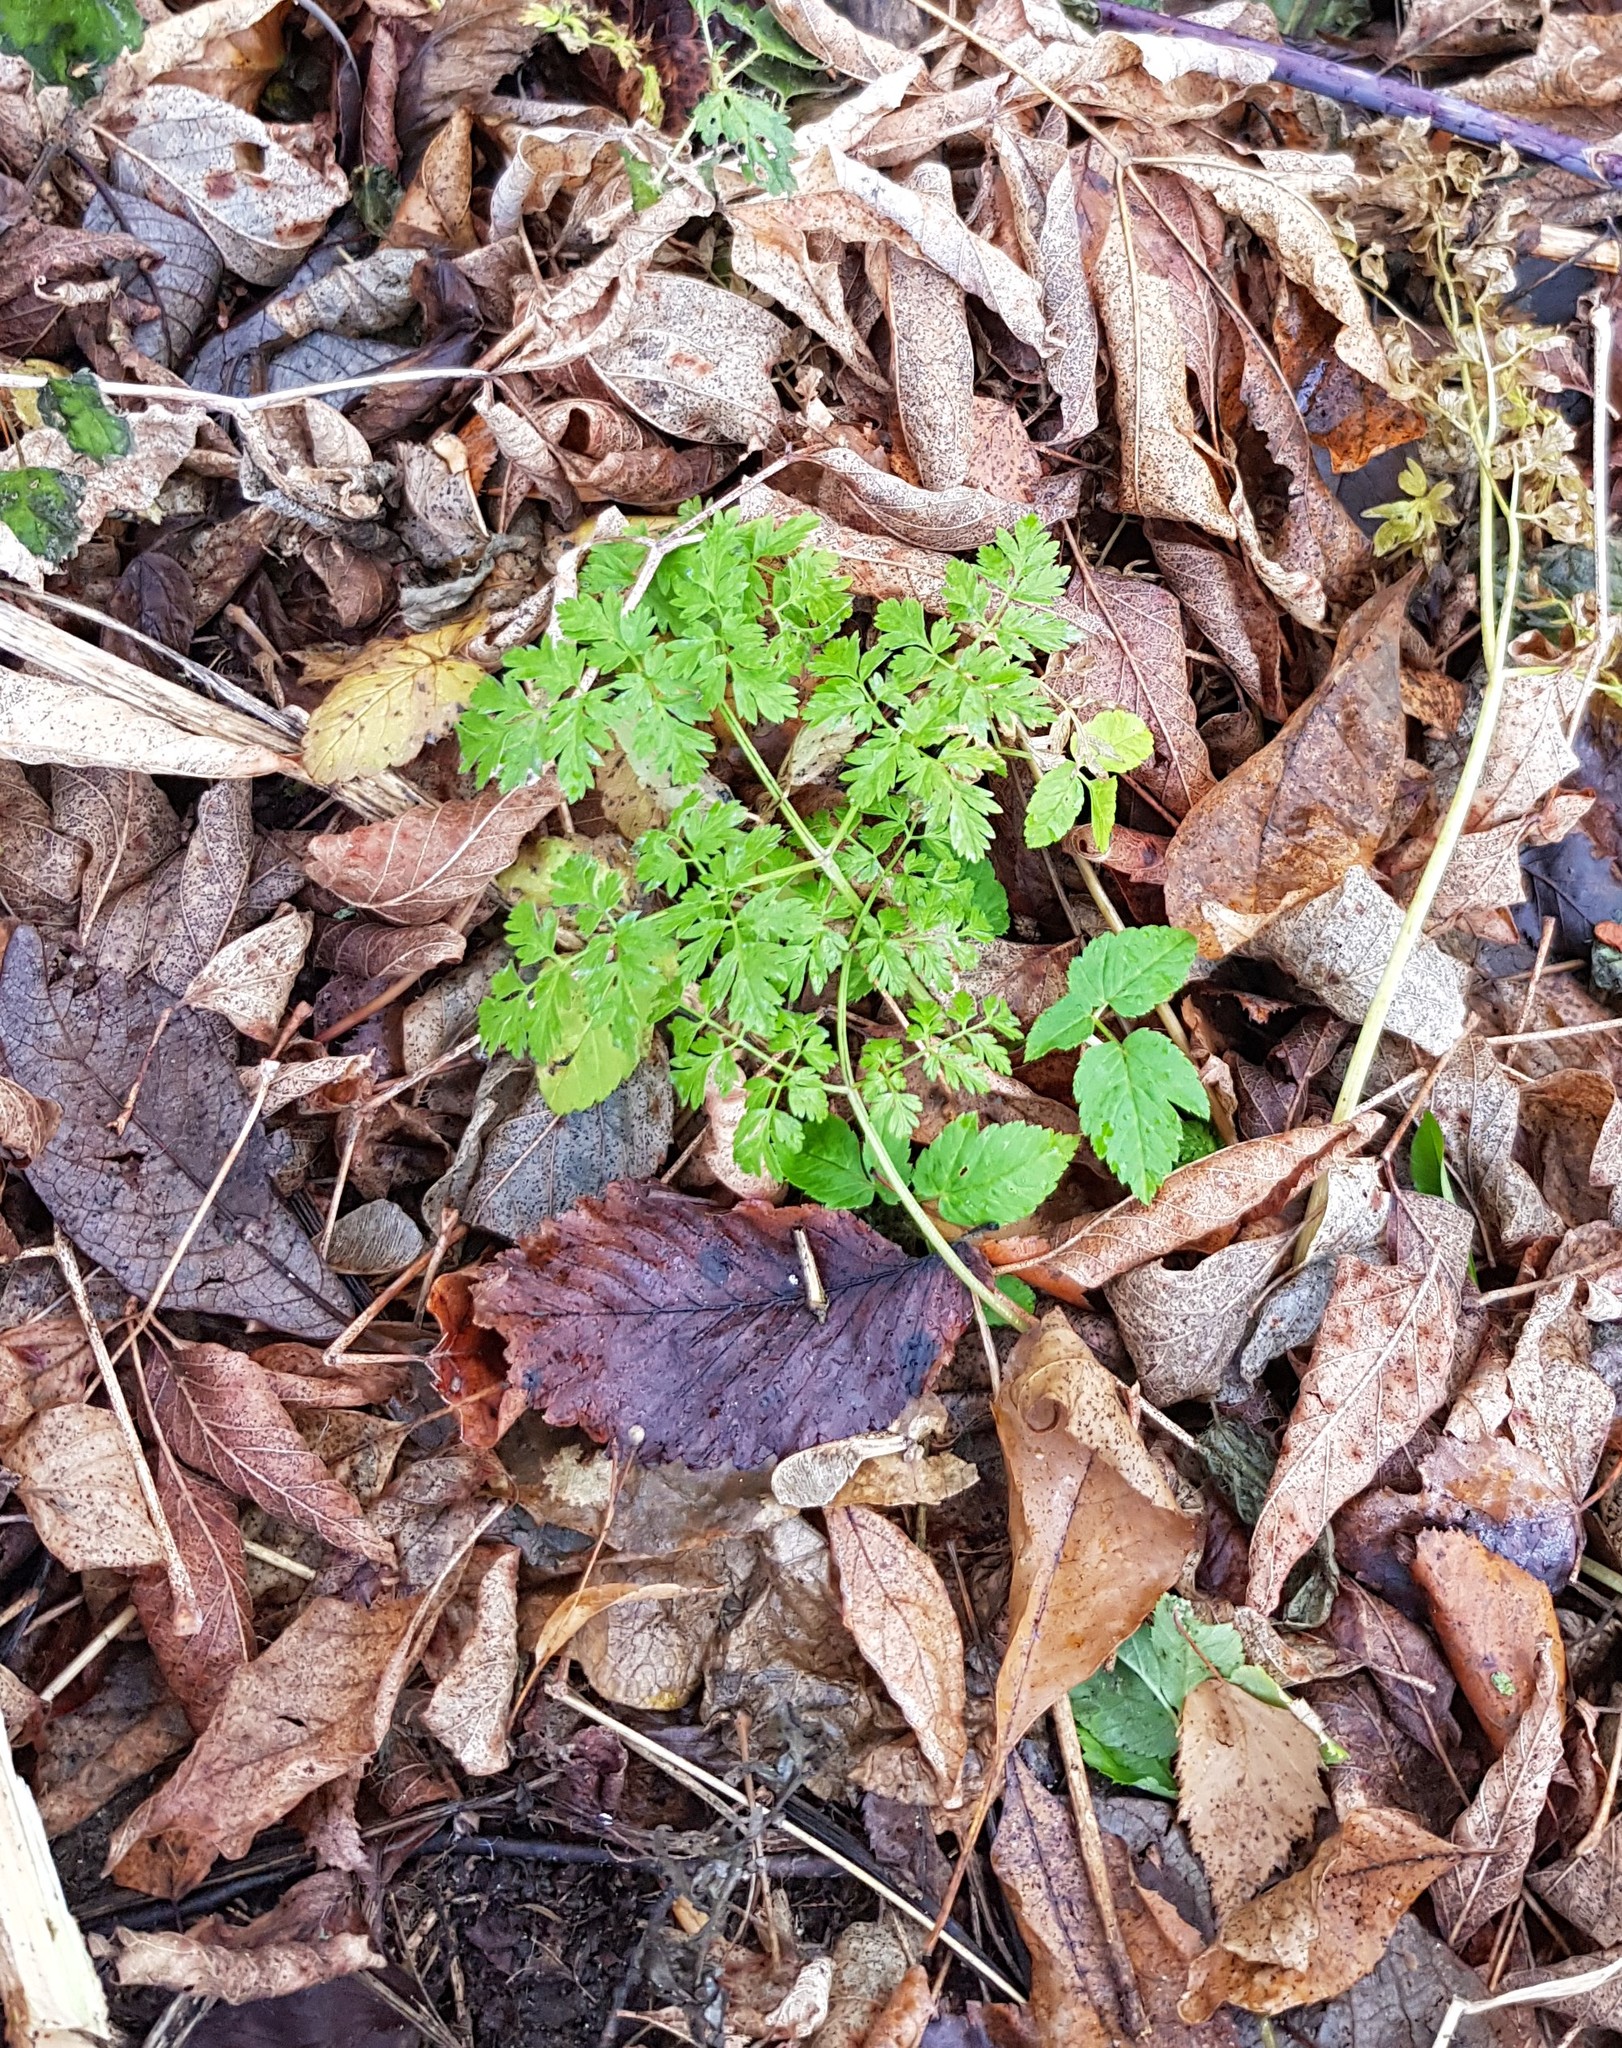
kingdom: Plantae
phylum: Tracheophyta
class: Magnoliopsida
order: Apiales
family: Apiaceae
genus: Anthriscus
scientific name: Anthriscus sylvestris
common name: Cow parsley
